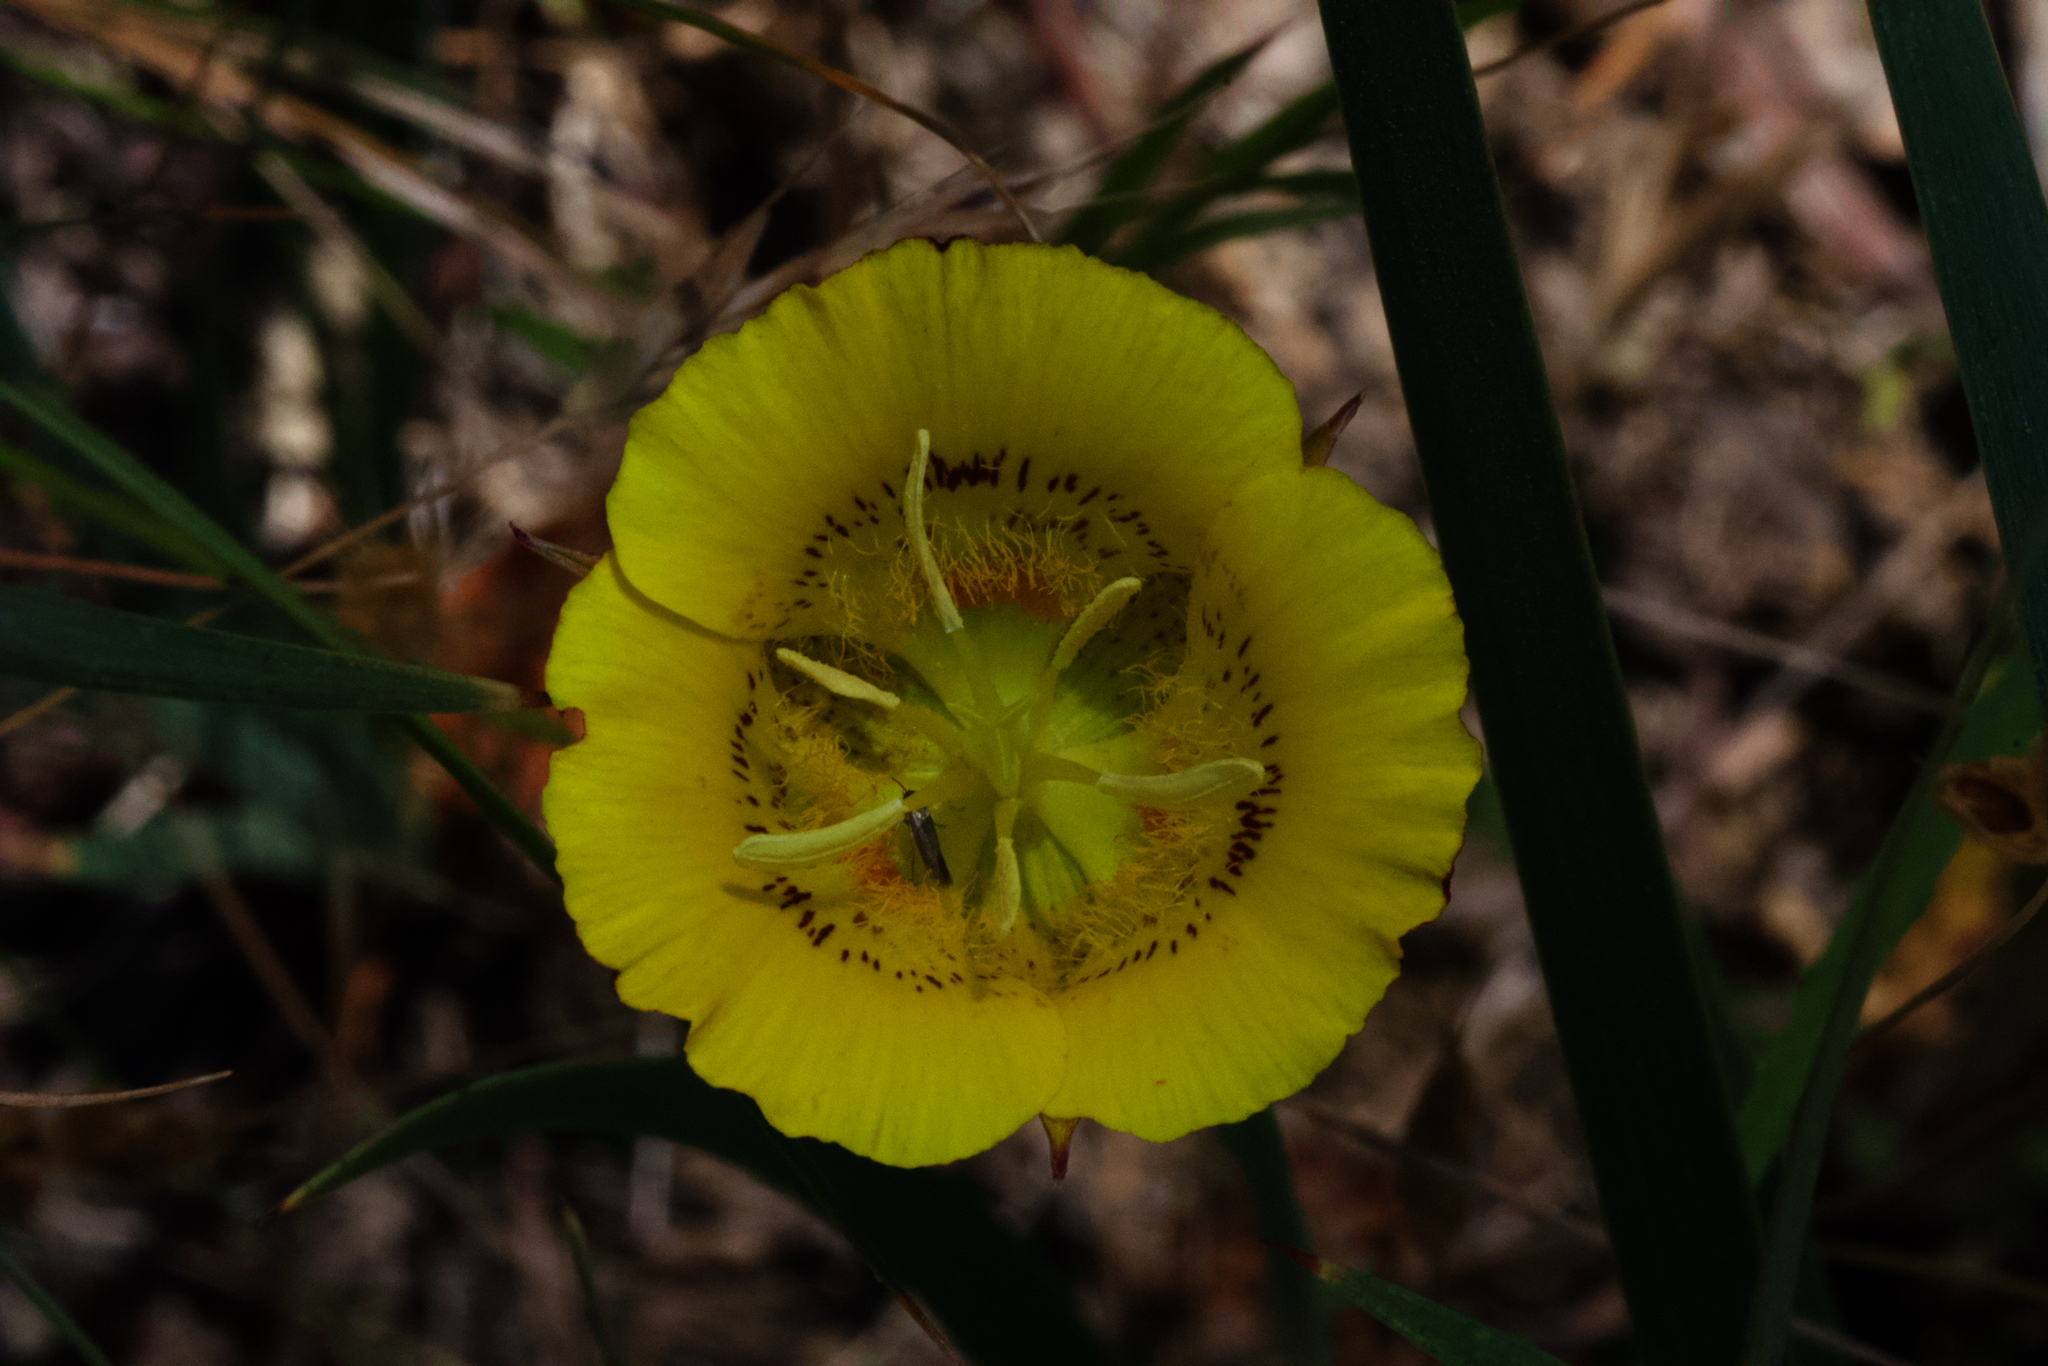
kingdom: Plantae
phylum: Tracheophyta
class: Liliopsida
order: Liliales
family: Liliaceae
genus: Calochortus
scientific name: Calochortus luteus
